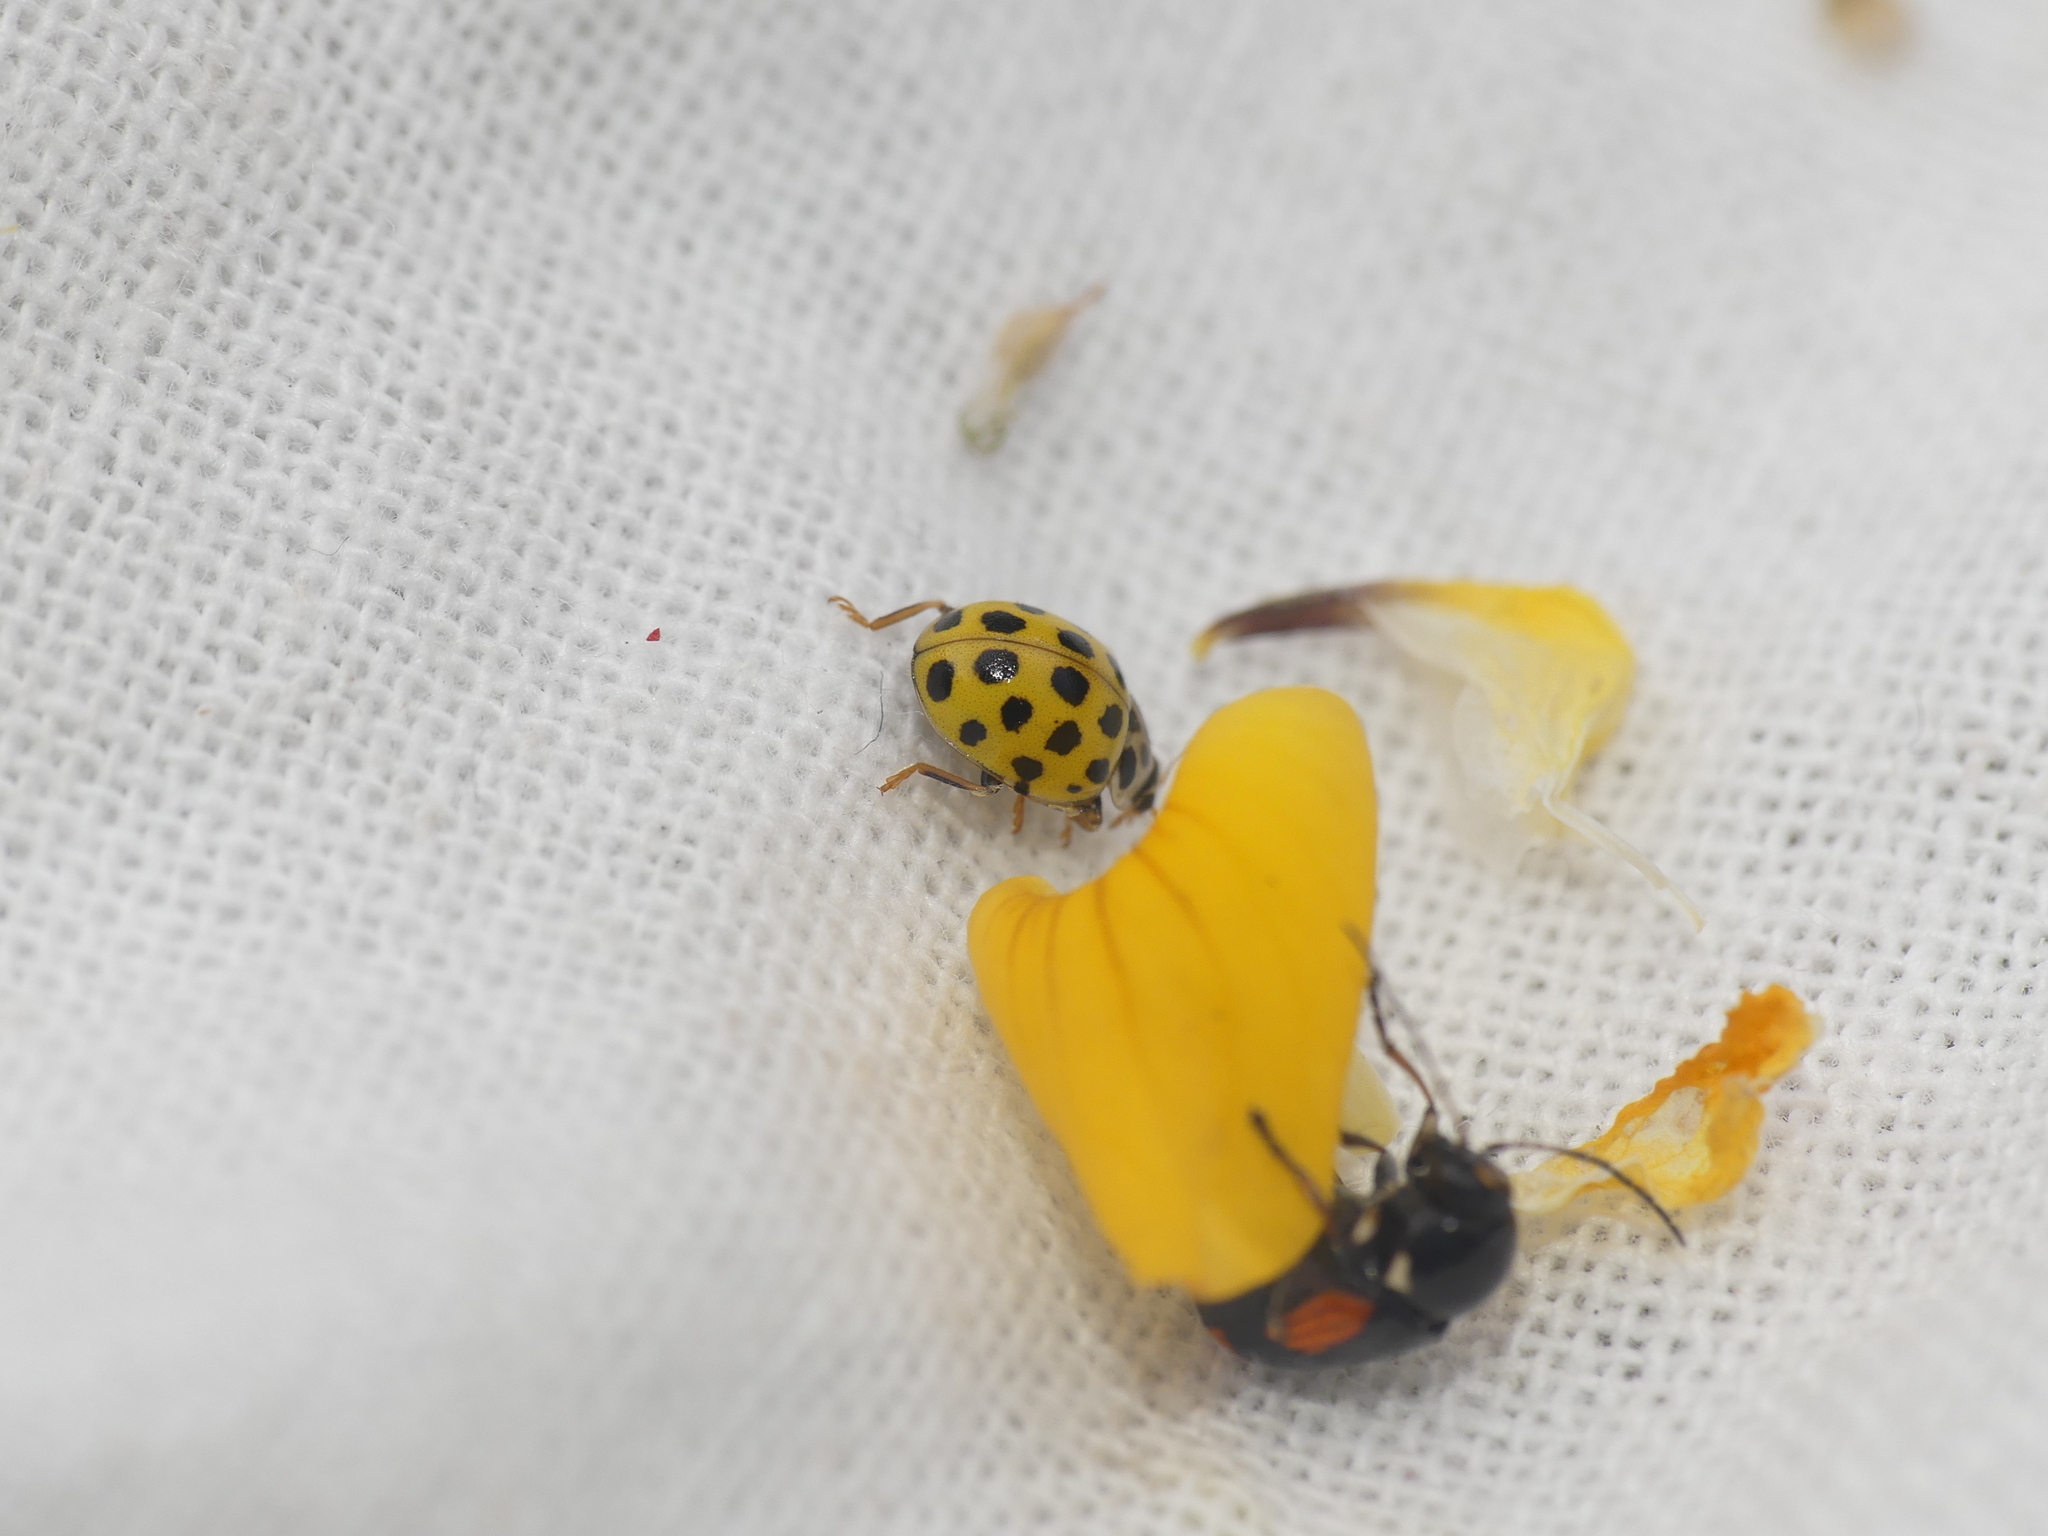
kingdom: Animalia
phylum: Arthropoda
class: Insecta
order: Coleoptera
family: Coccinellidae
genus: Psyllobora
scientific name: Psyllobora vigintiduopunctata
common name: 22-spot ladybird
